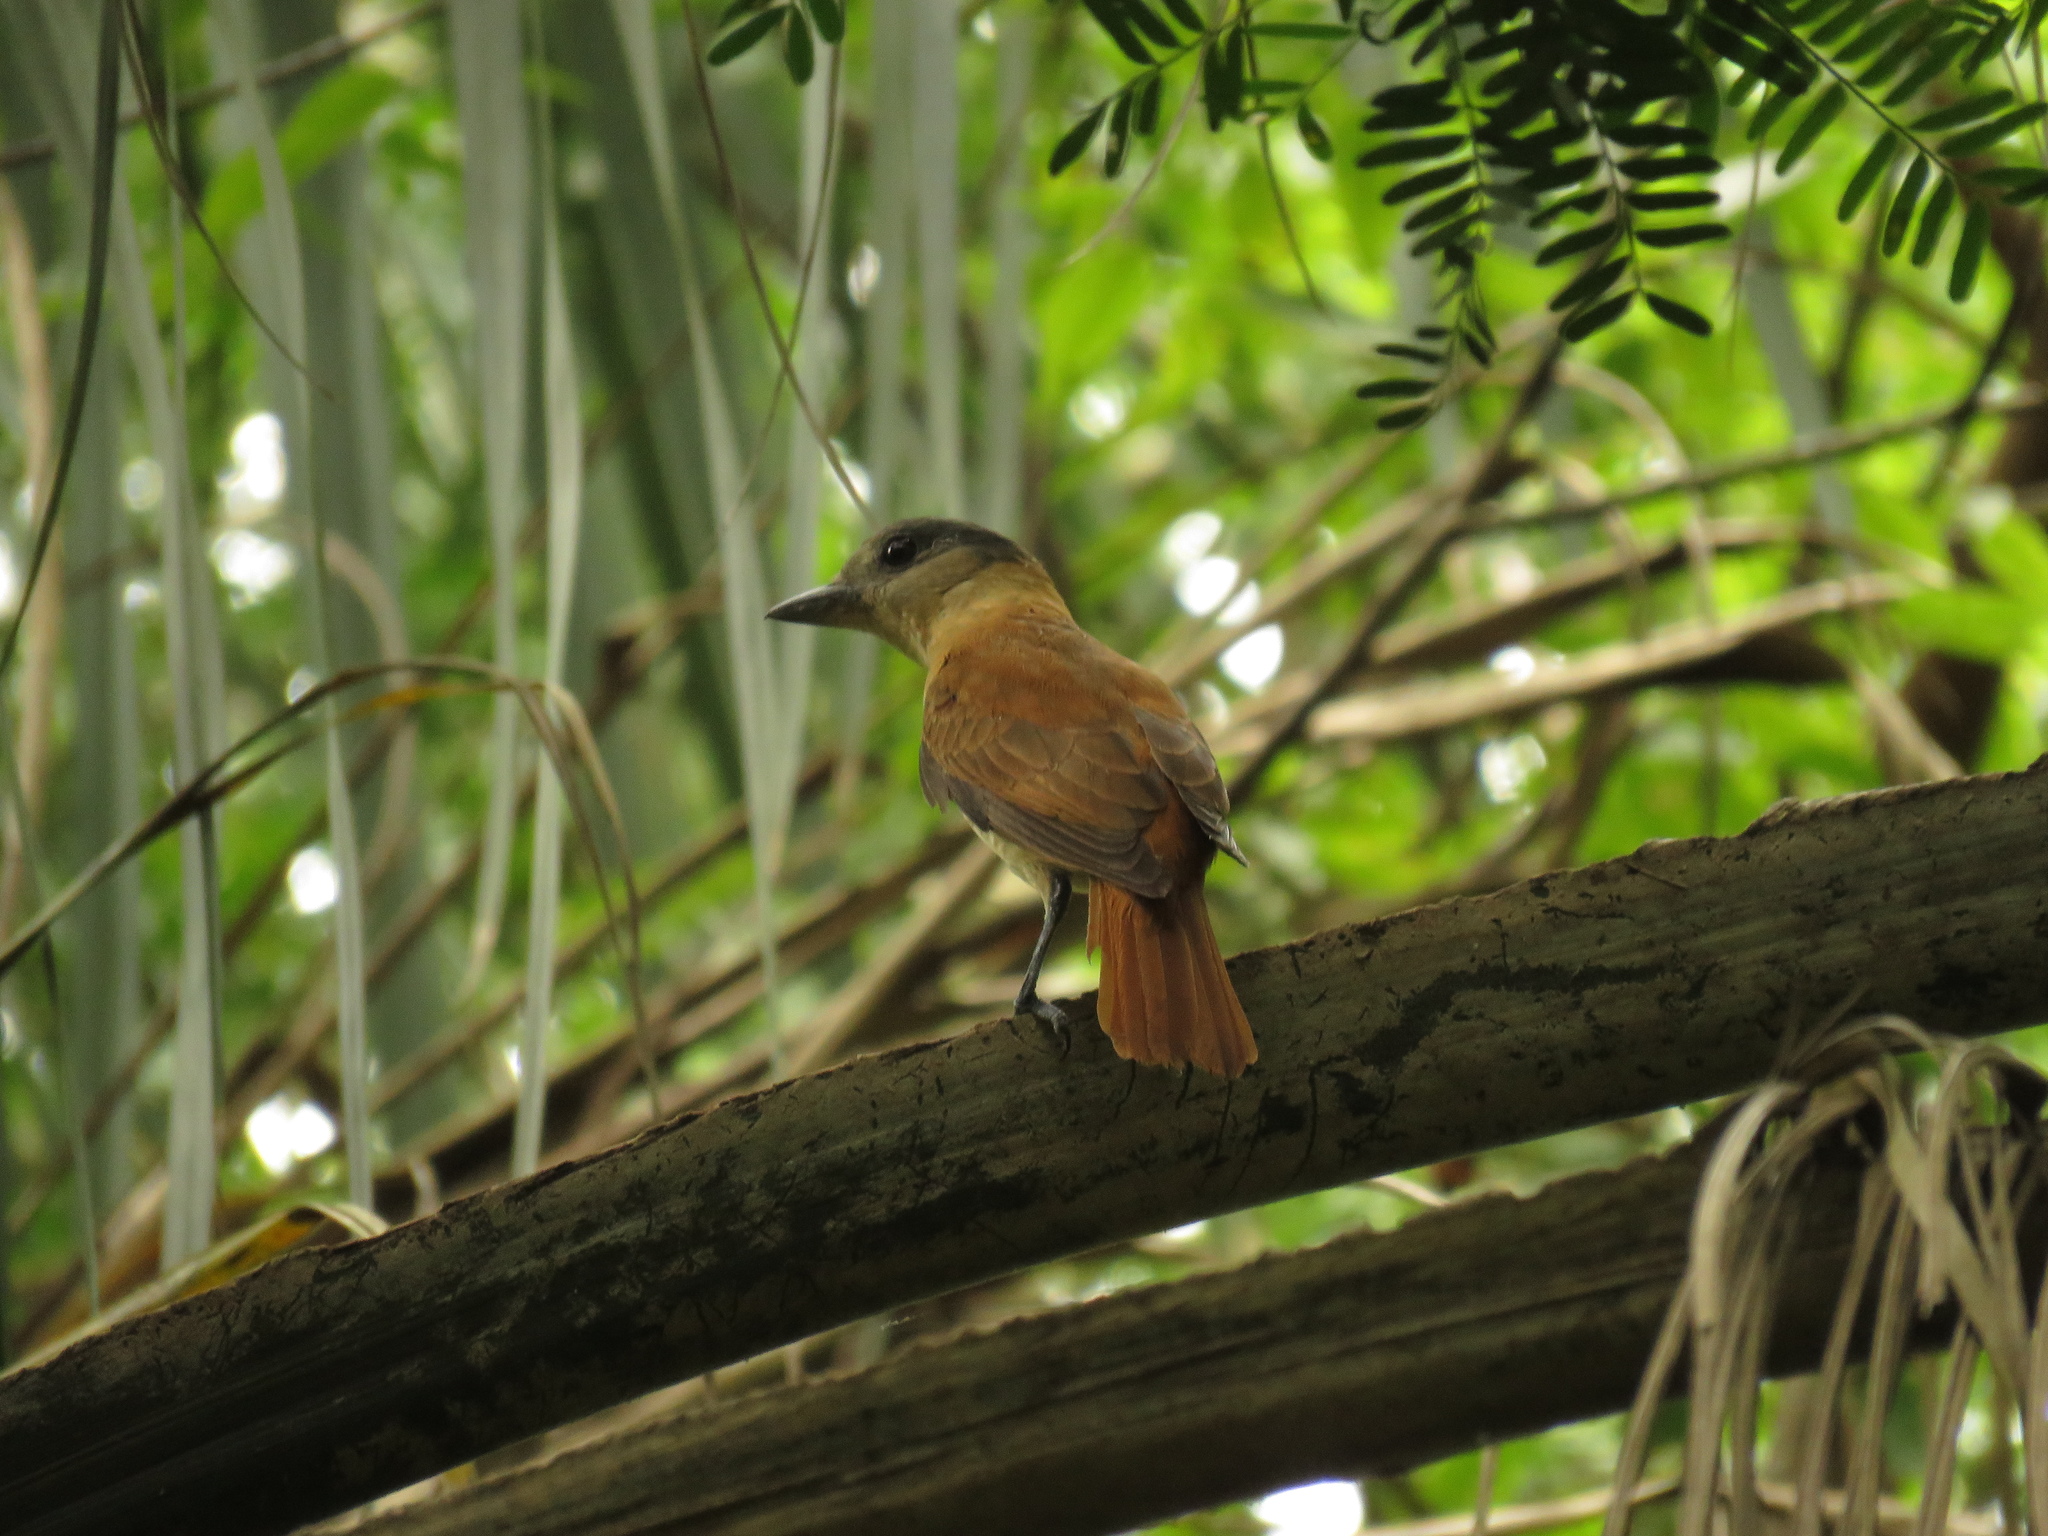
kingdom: Animalia
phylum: Chordata
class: Aves
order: Passeriformes
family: Cotingidae
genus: Pachyramphus
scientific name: Pachyramphus validus
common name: Crested becard
